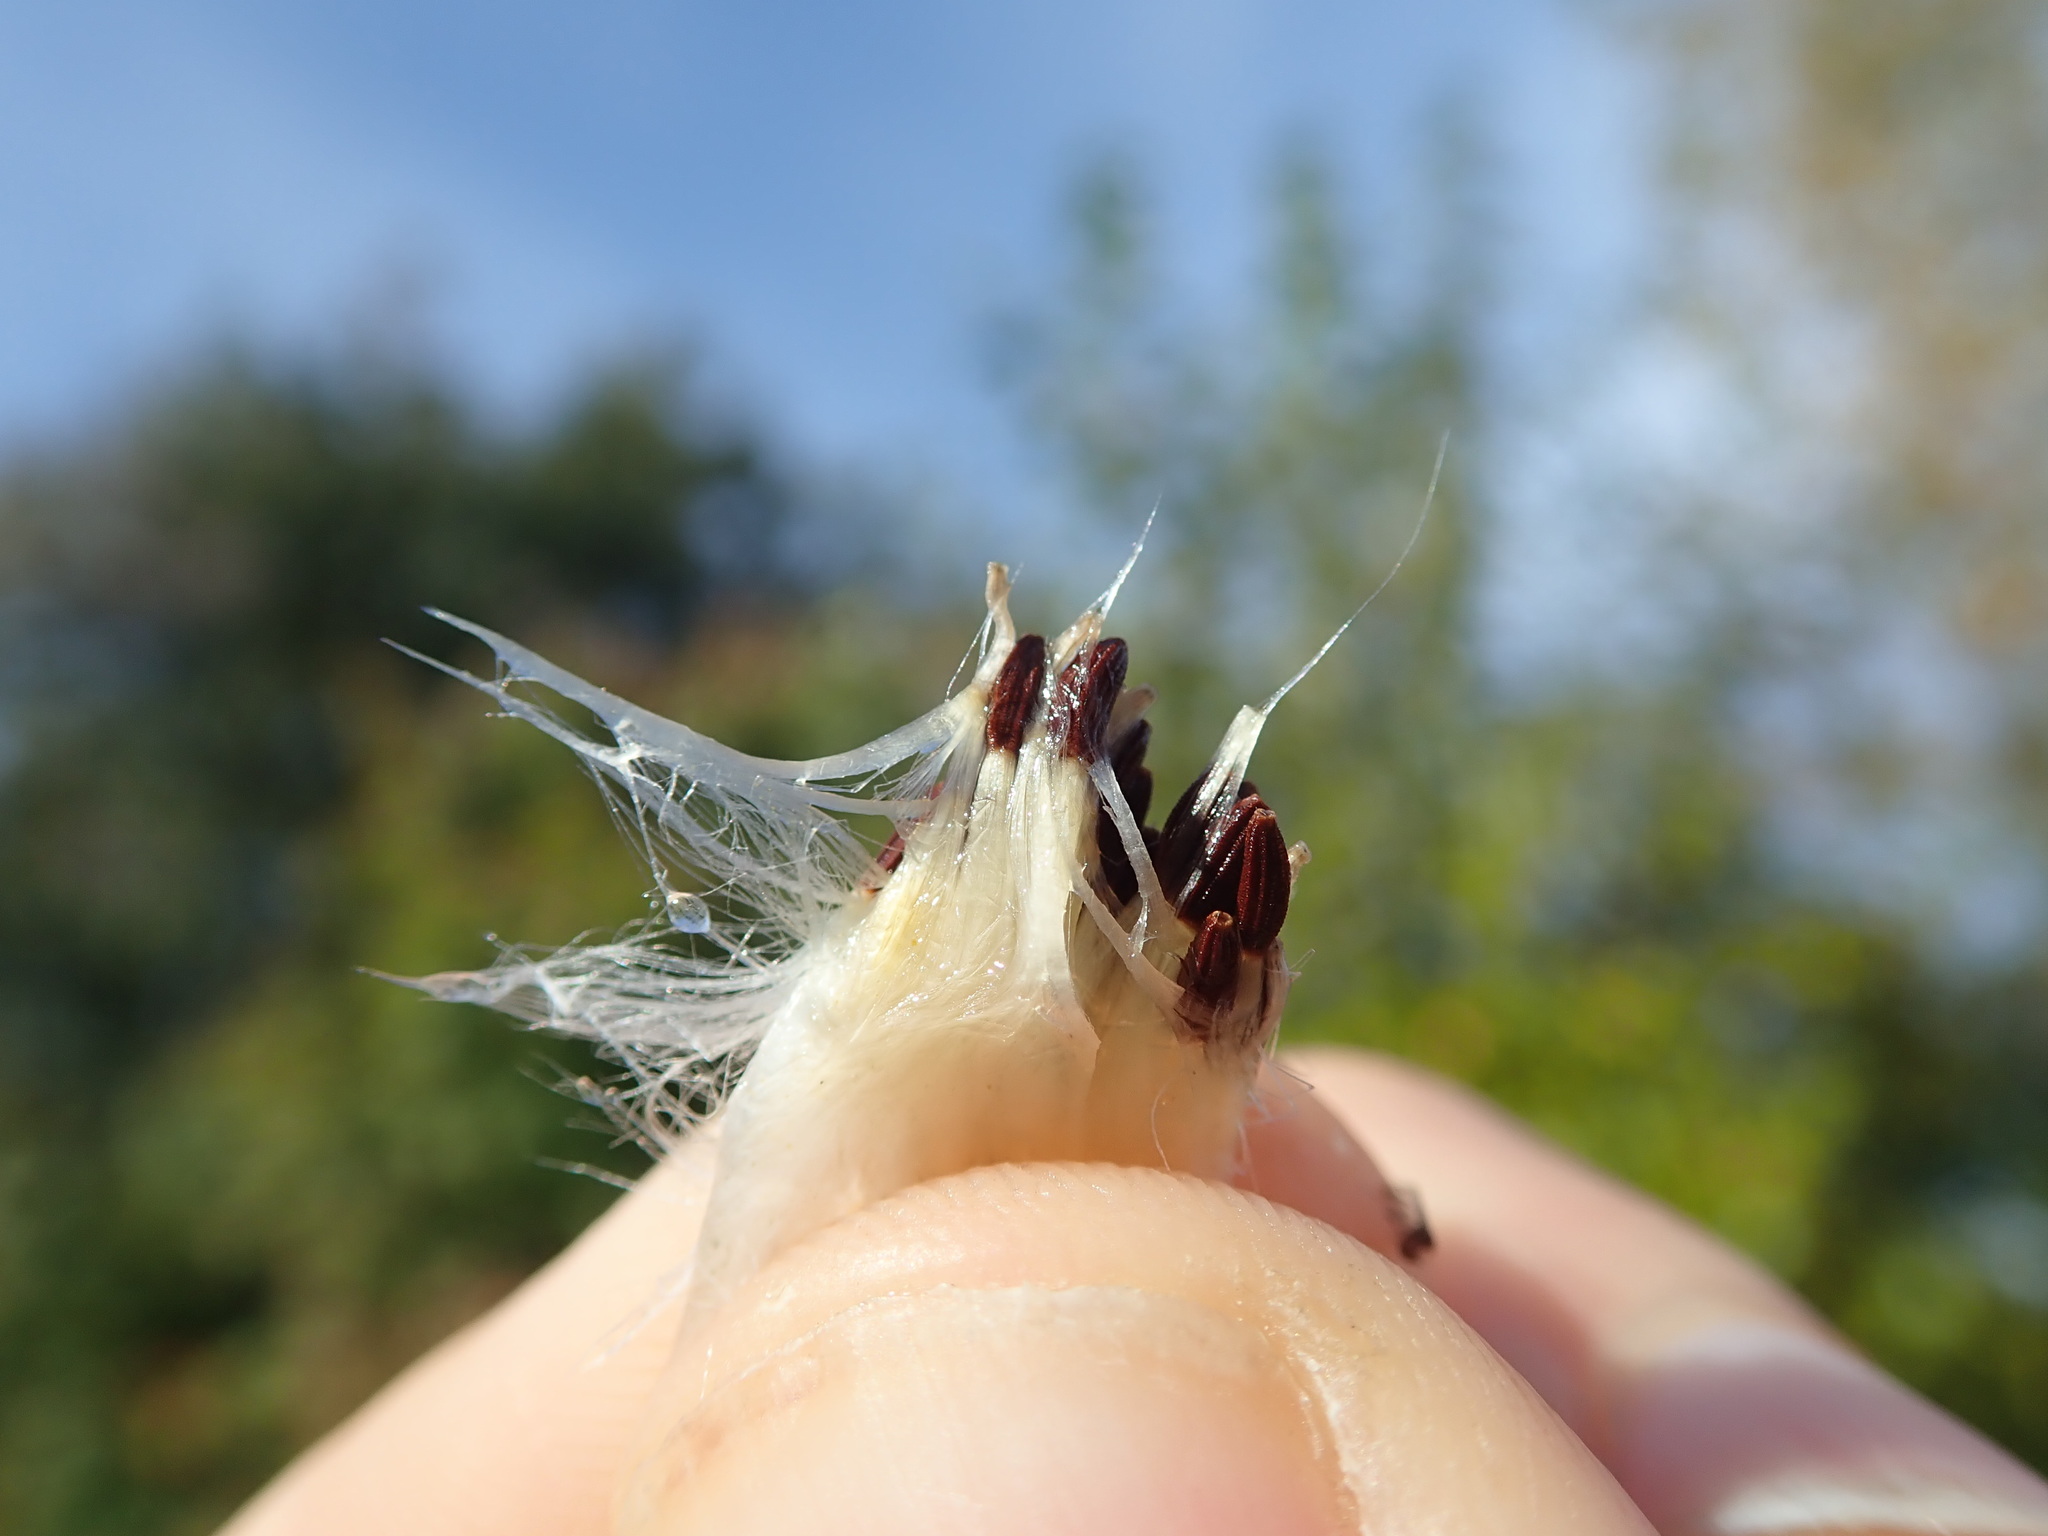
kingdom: Plantae
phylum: Tracheophyta
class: Magnoliopsida
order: Asterales
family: Asteraceae
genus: Sonchus
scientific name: Sonchus arvensis
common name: Perennial sow-thistle
